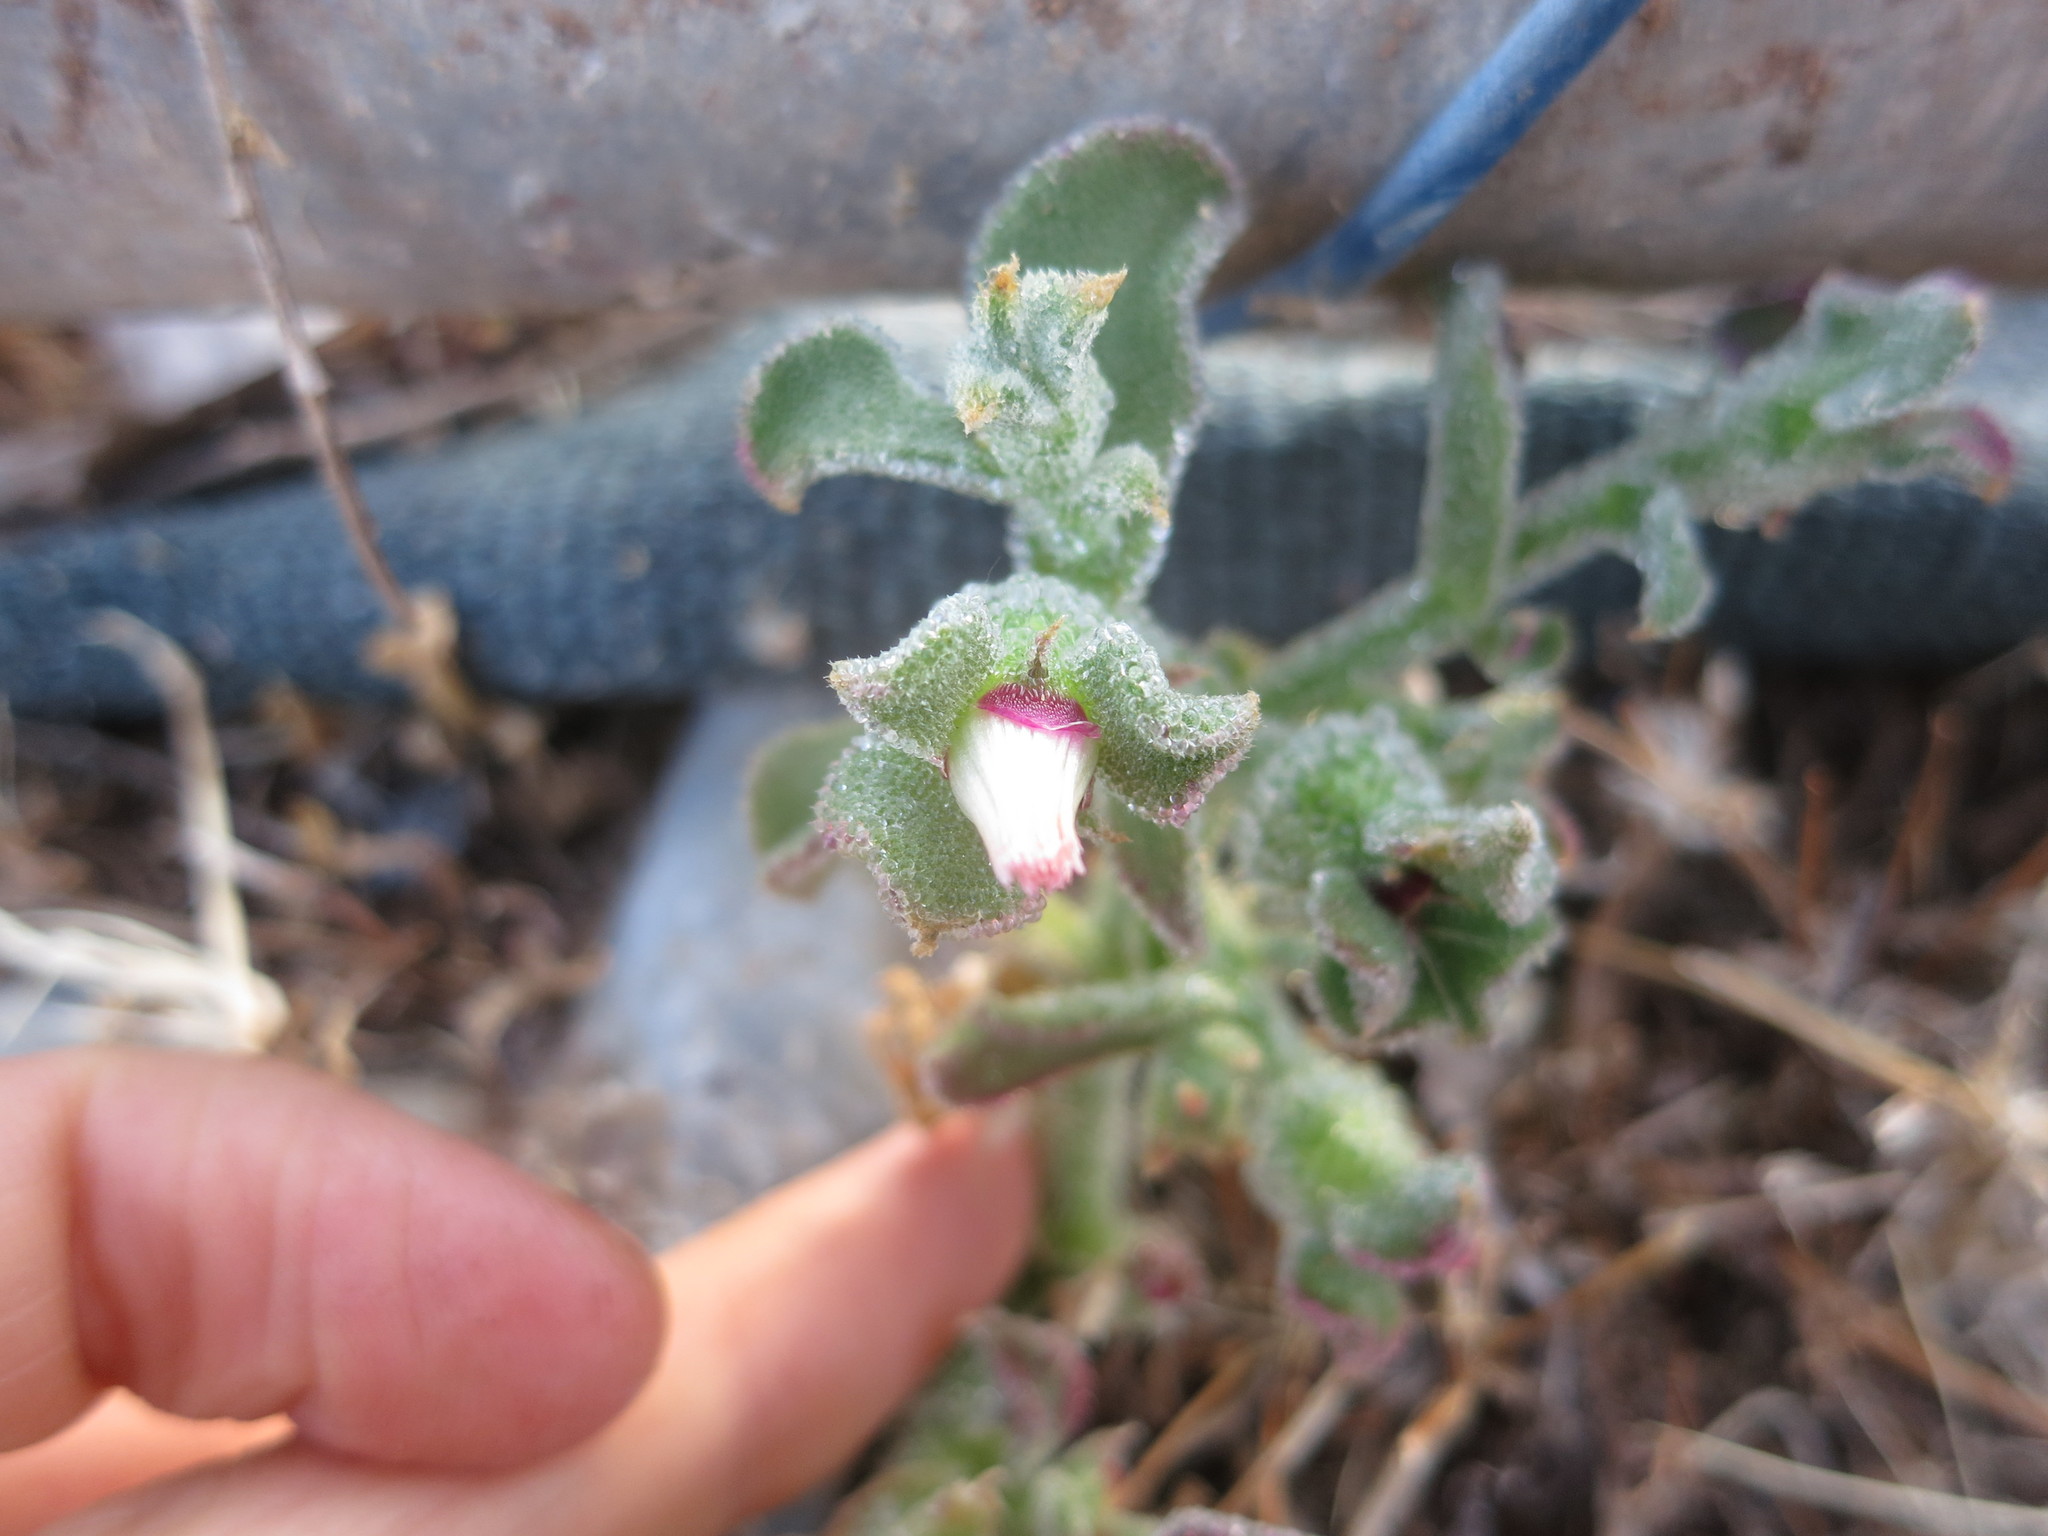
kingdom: Plantae
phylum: Tracheophyta
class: Magnoliopsida
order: Caryophyllales
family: Aizoaceae
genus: Mesembryanthemum
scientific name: Mesembryanthemum crystallinum
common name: Common iceplant
